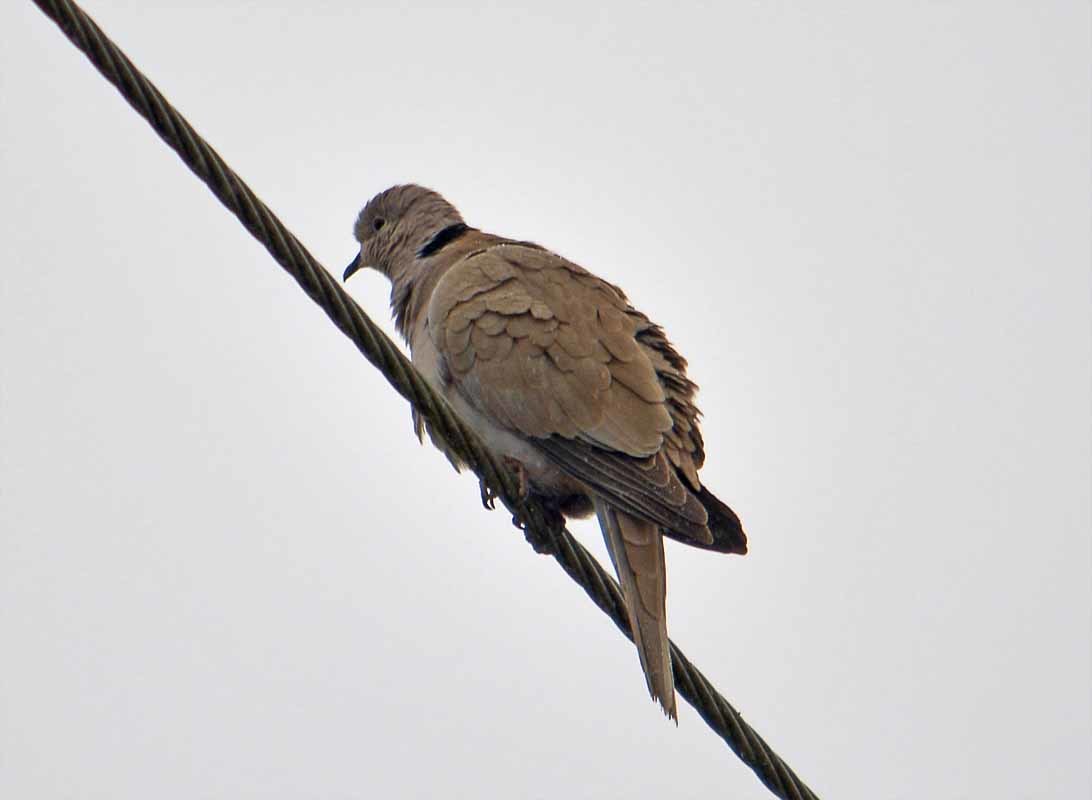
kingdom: Animalia
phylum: Chordata
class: Aves
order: Columbiformes
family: Columbidae
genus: Streptopelia
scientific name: Streptopelia decaocto
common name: Eurasian collared dove
